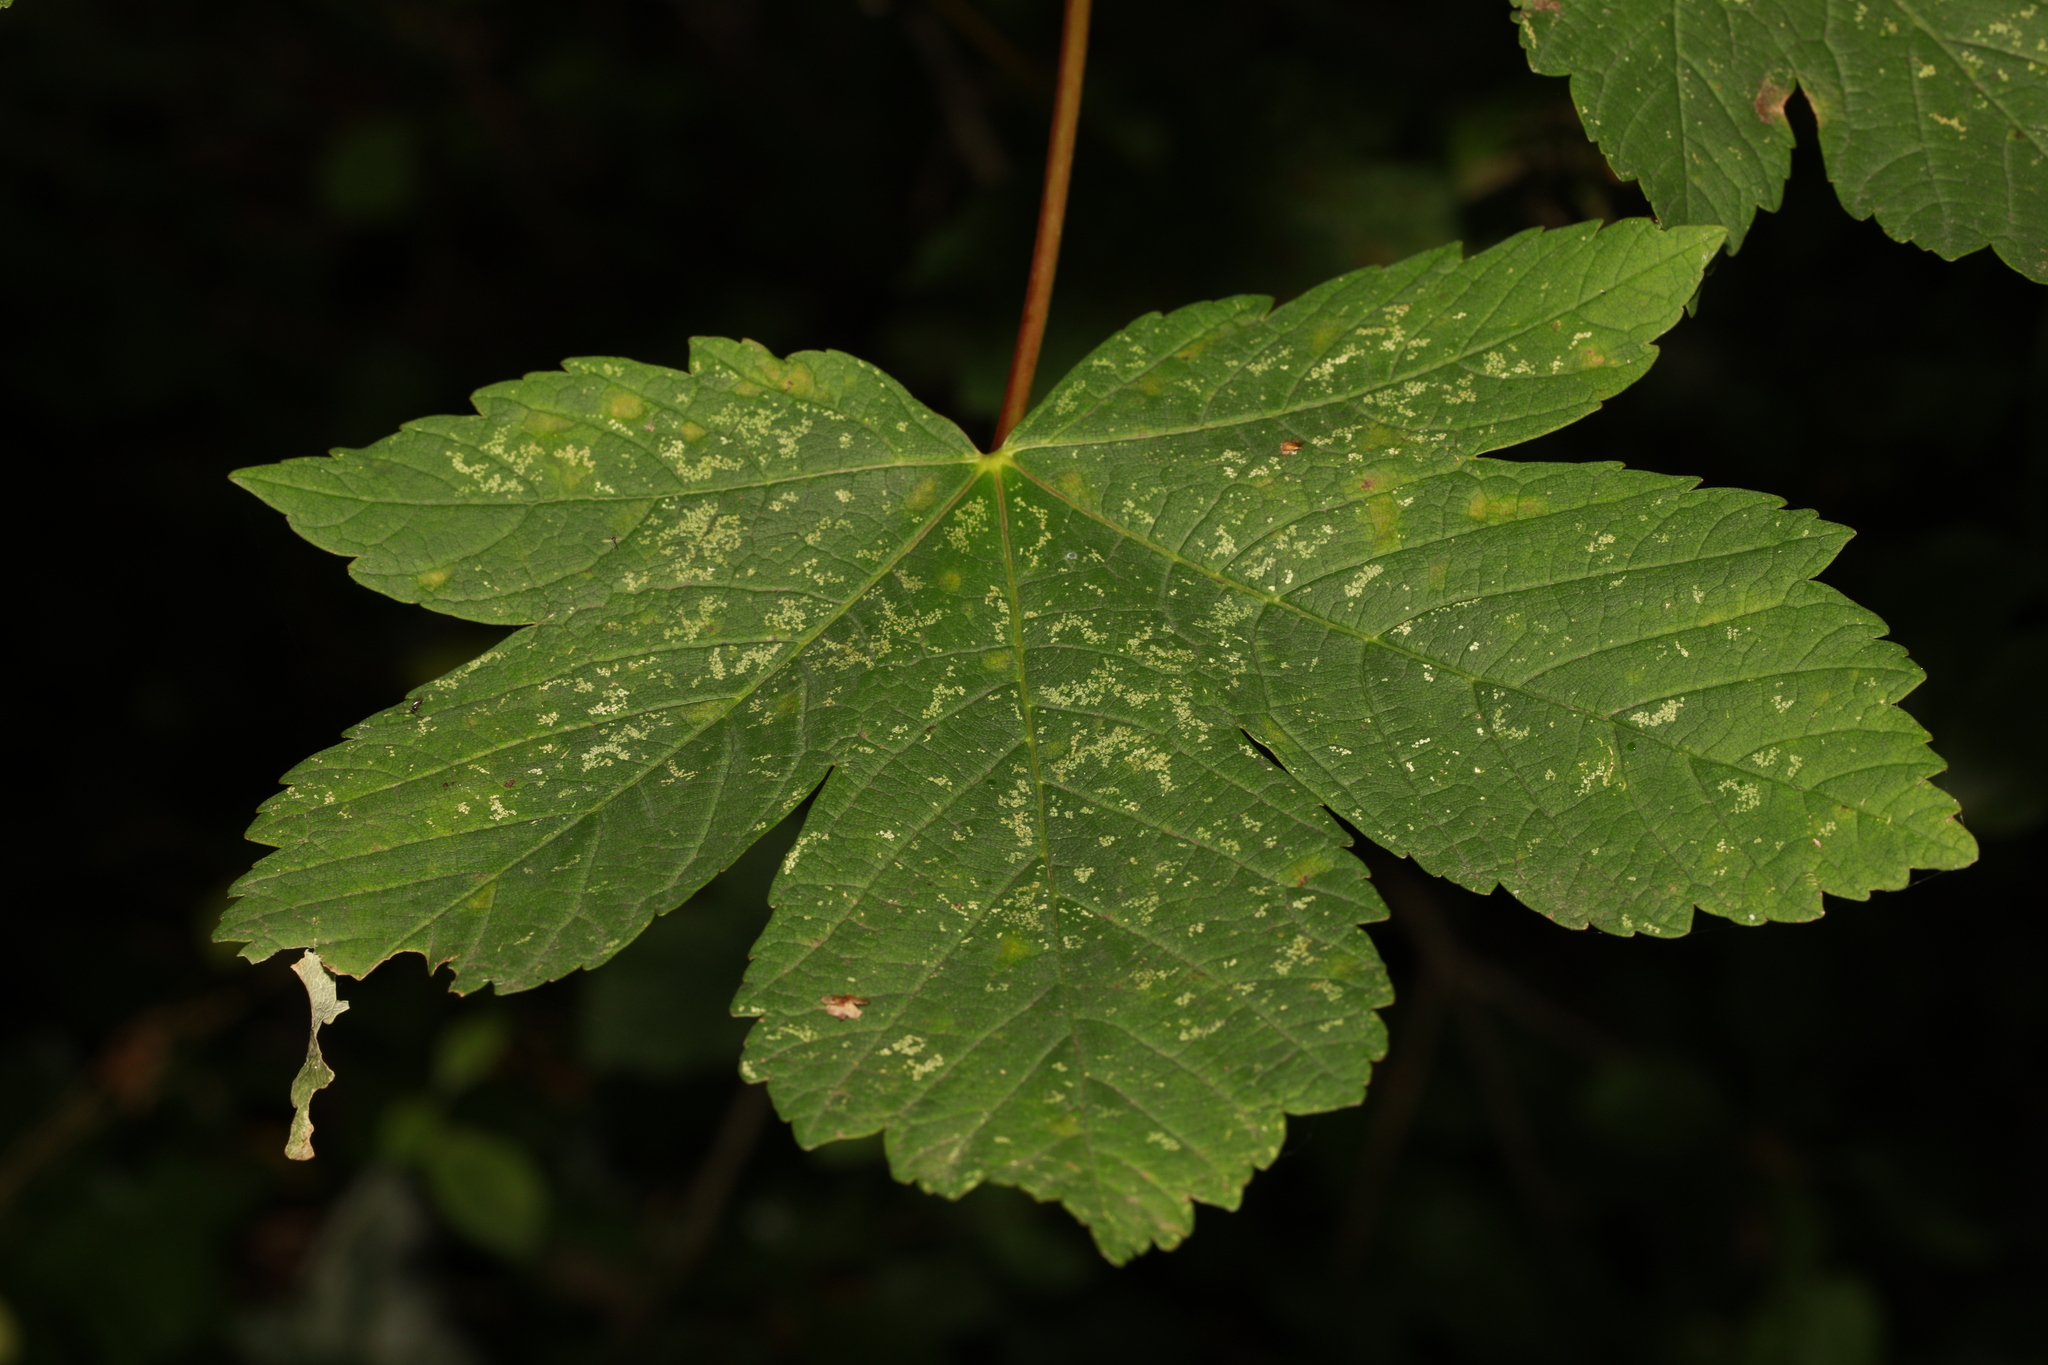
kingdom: Plantae
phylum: Tracheophyta
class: Magnoliopsida
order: Sapindales
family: Sapindaceae
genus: Acer
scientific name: Acer pseudoplatanus
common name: Sycamore
